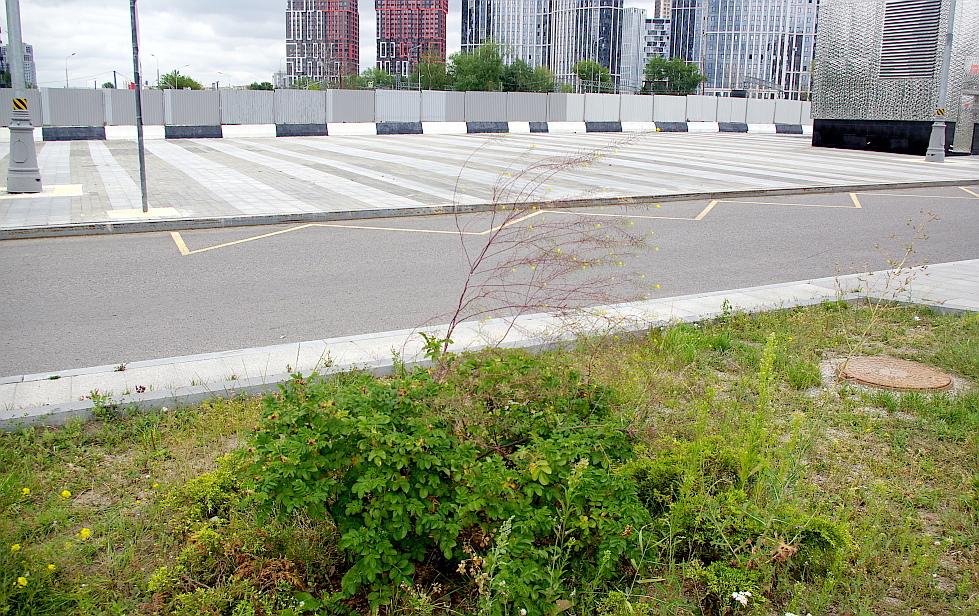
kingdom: Plantae
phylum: Tracheophyta
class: Magnoliopsida
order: Brassicales
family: Brassicaceae
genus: Sisymbrium
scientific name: Sisymbrium loeselii
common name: False london-rocket
